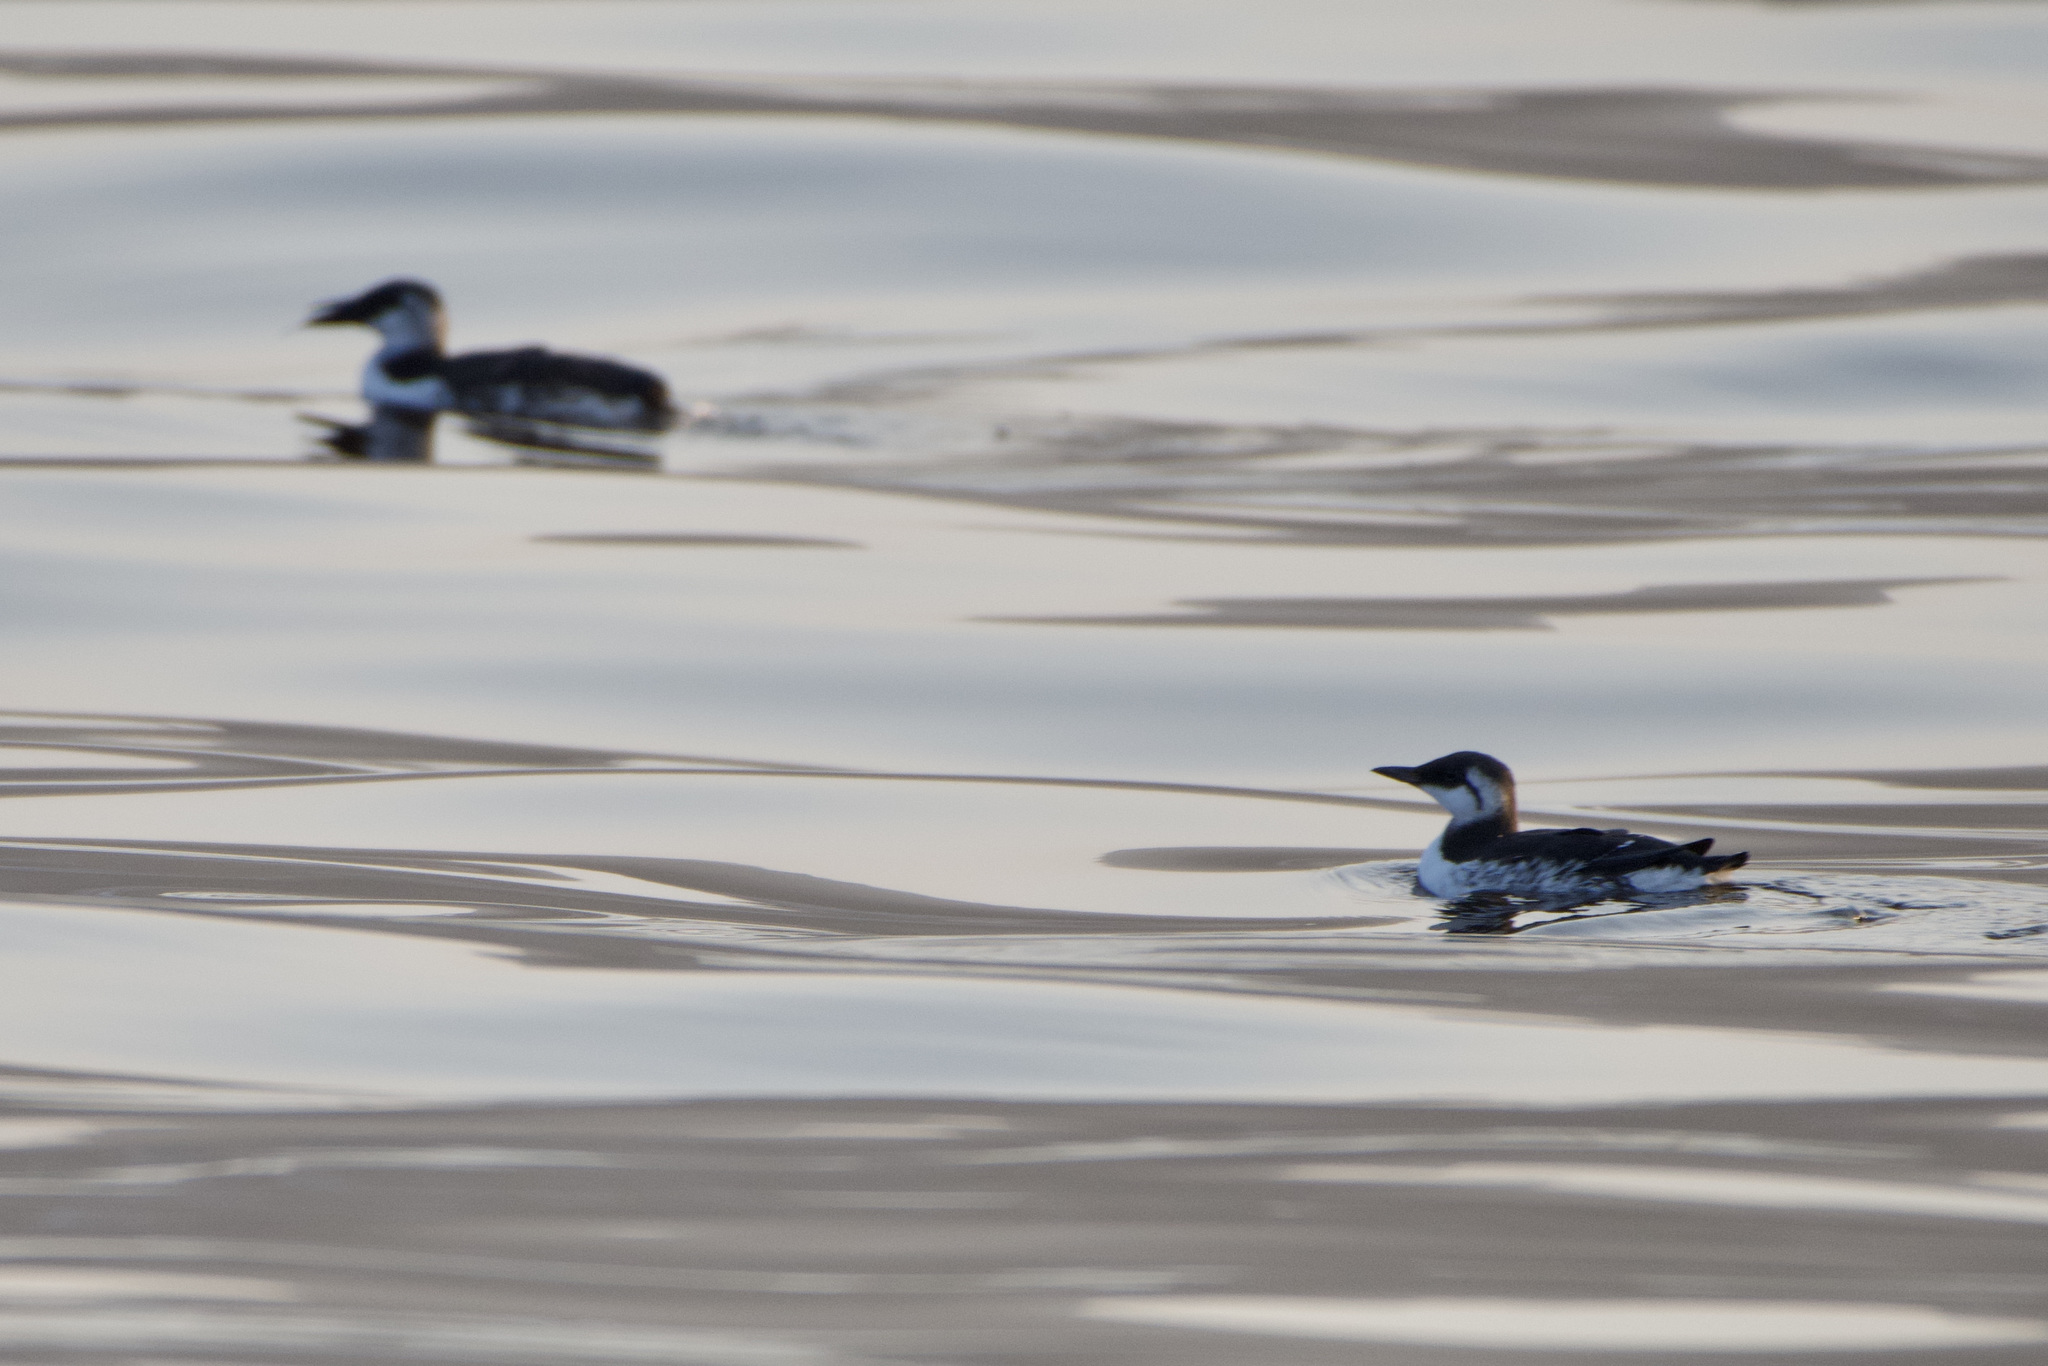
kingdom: Animalia
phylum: Chordata
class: Aves
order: Charadriiformes
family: Alcidae
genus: Uria
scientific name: Uria aalge
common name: Common murre
